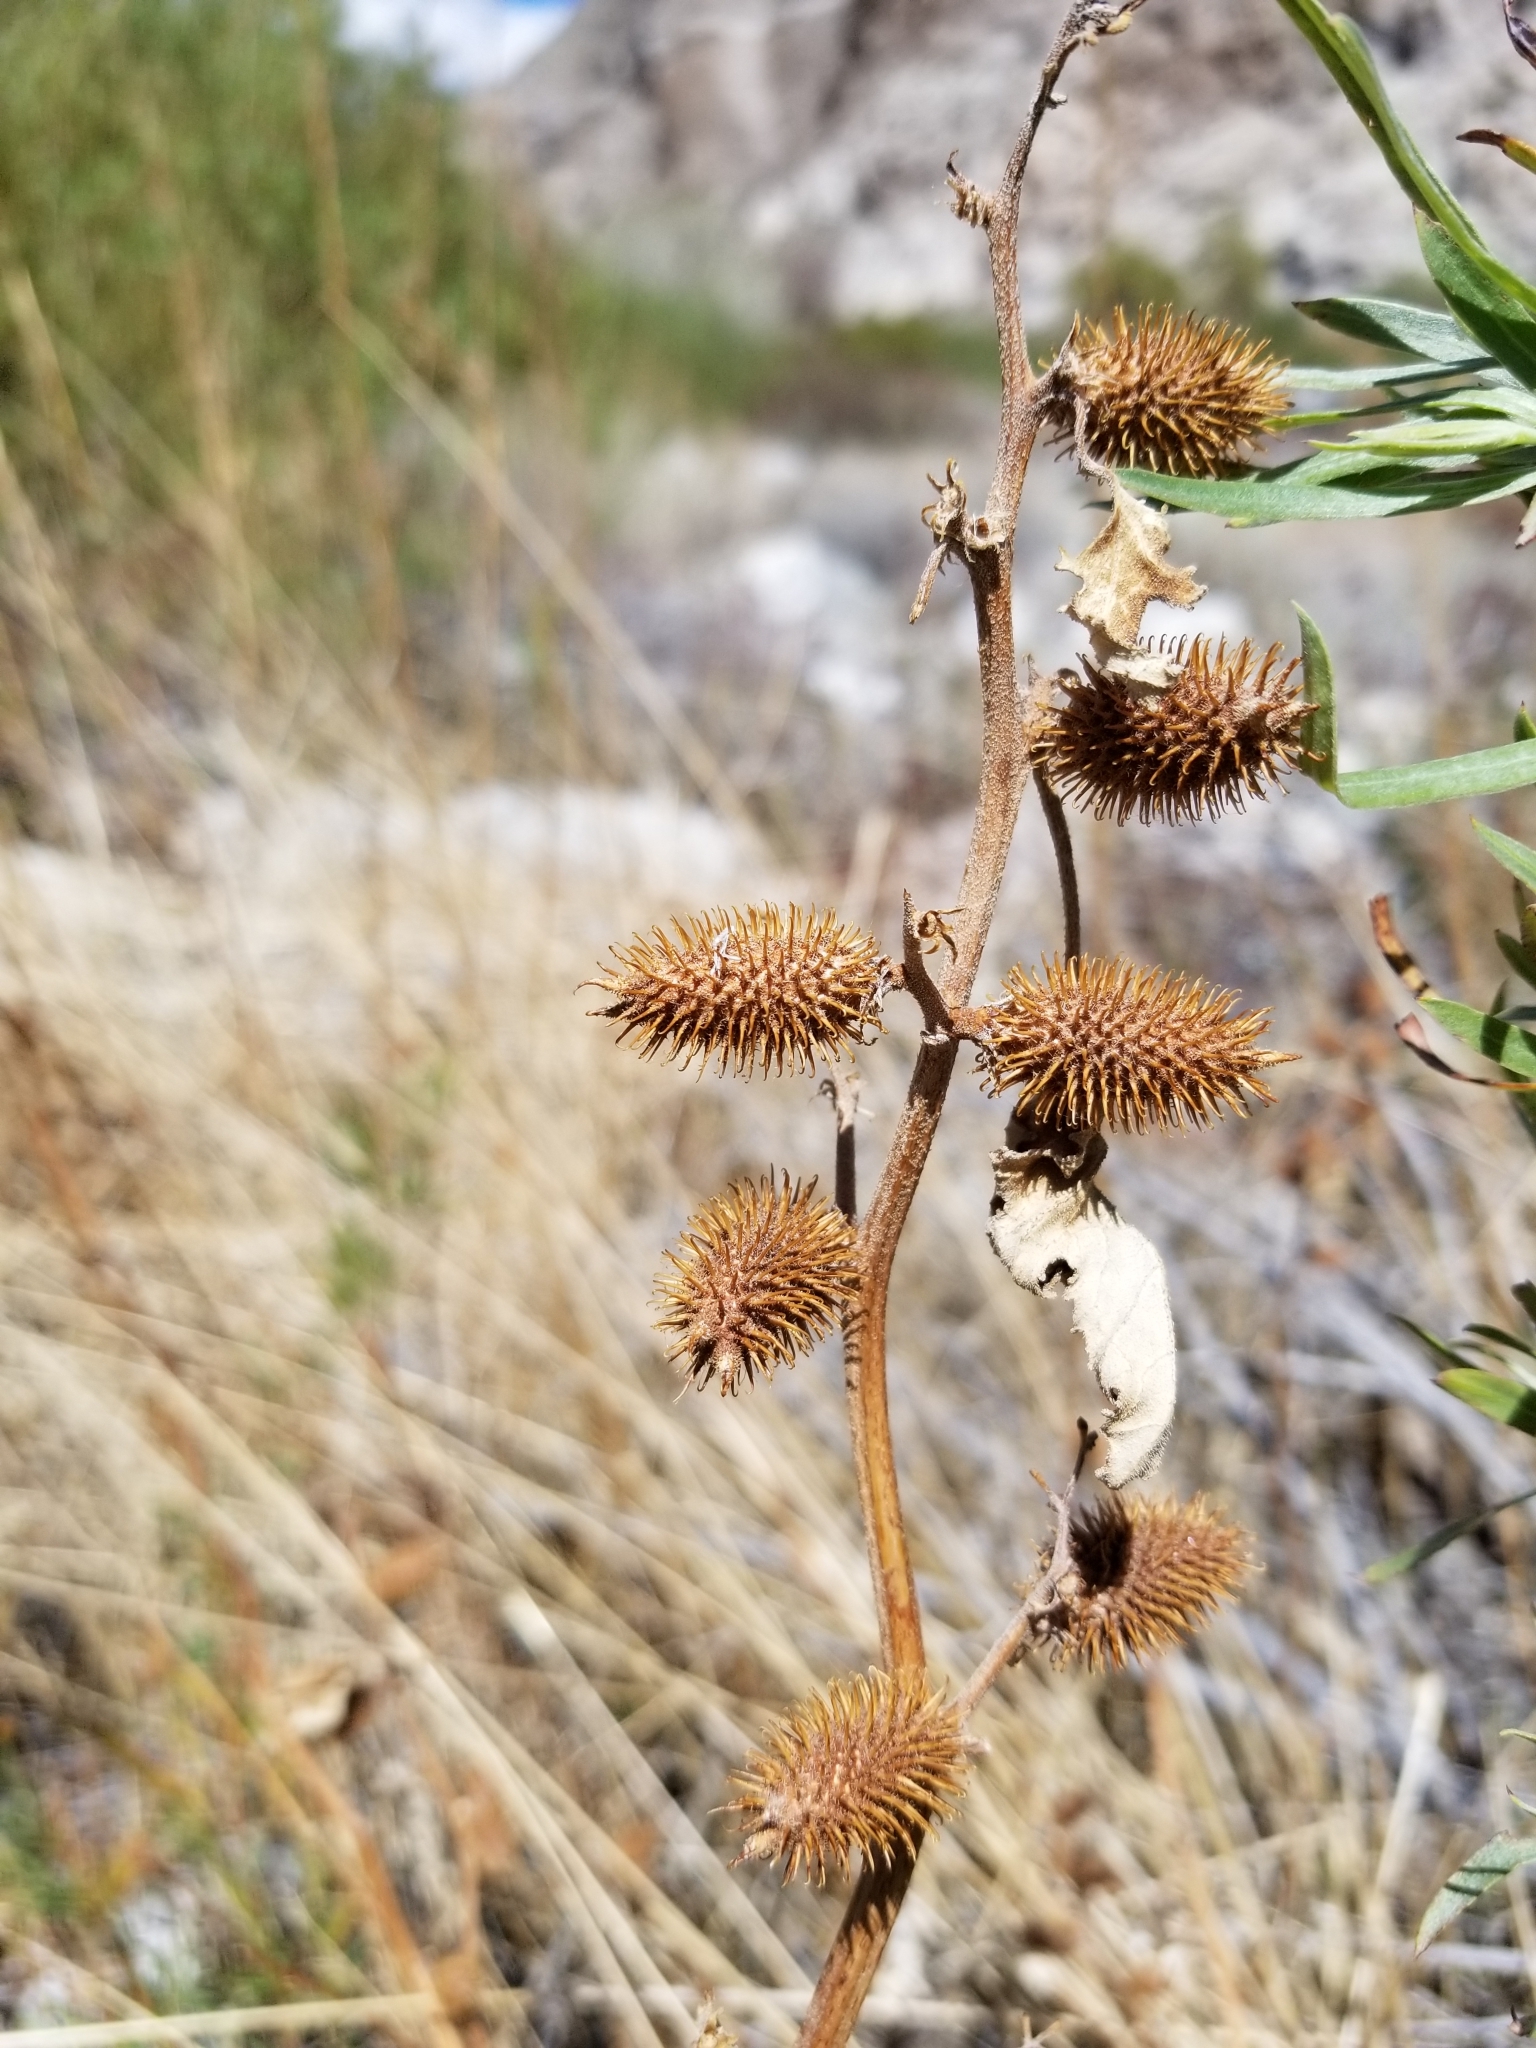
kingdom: Plantae
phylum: Tracheophyta
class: Magnoliopsida
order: Asterales
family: Asteraceae
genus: Xanthium
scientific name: Xanthium strumarium
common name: Rough cocklebur
